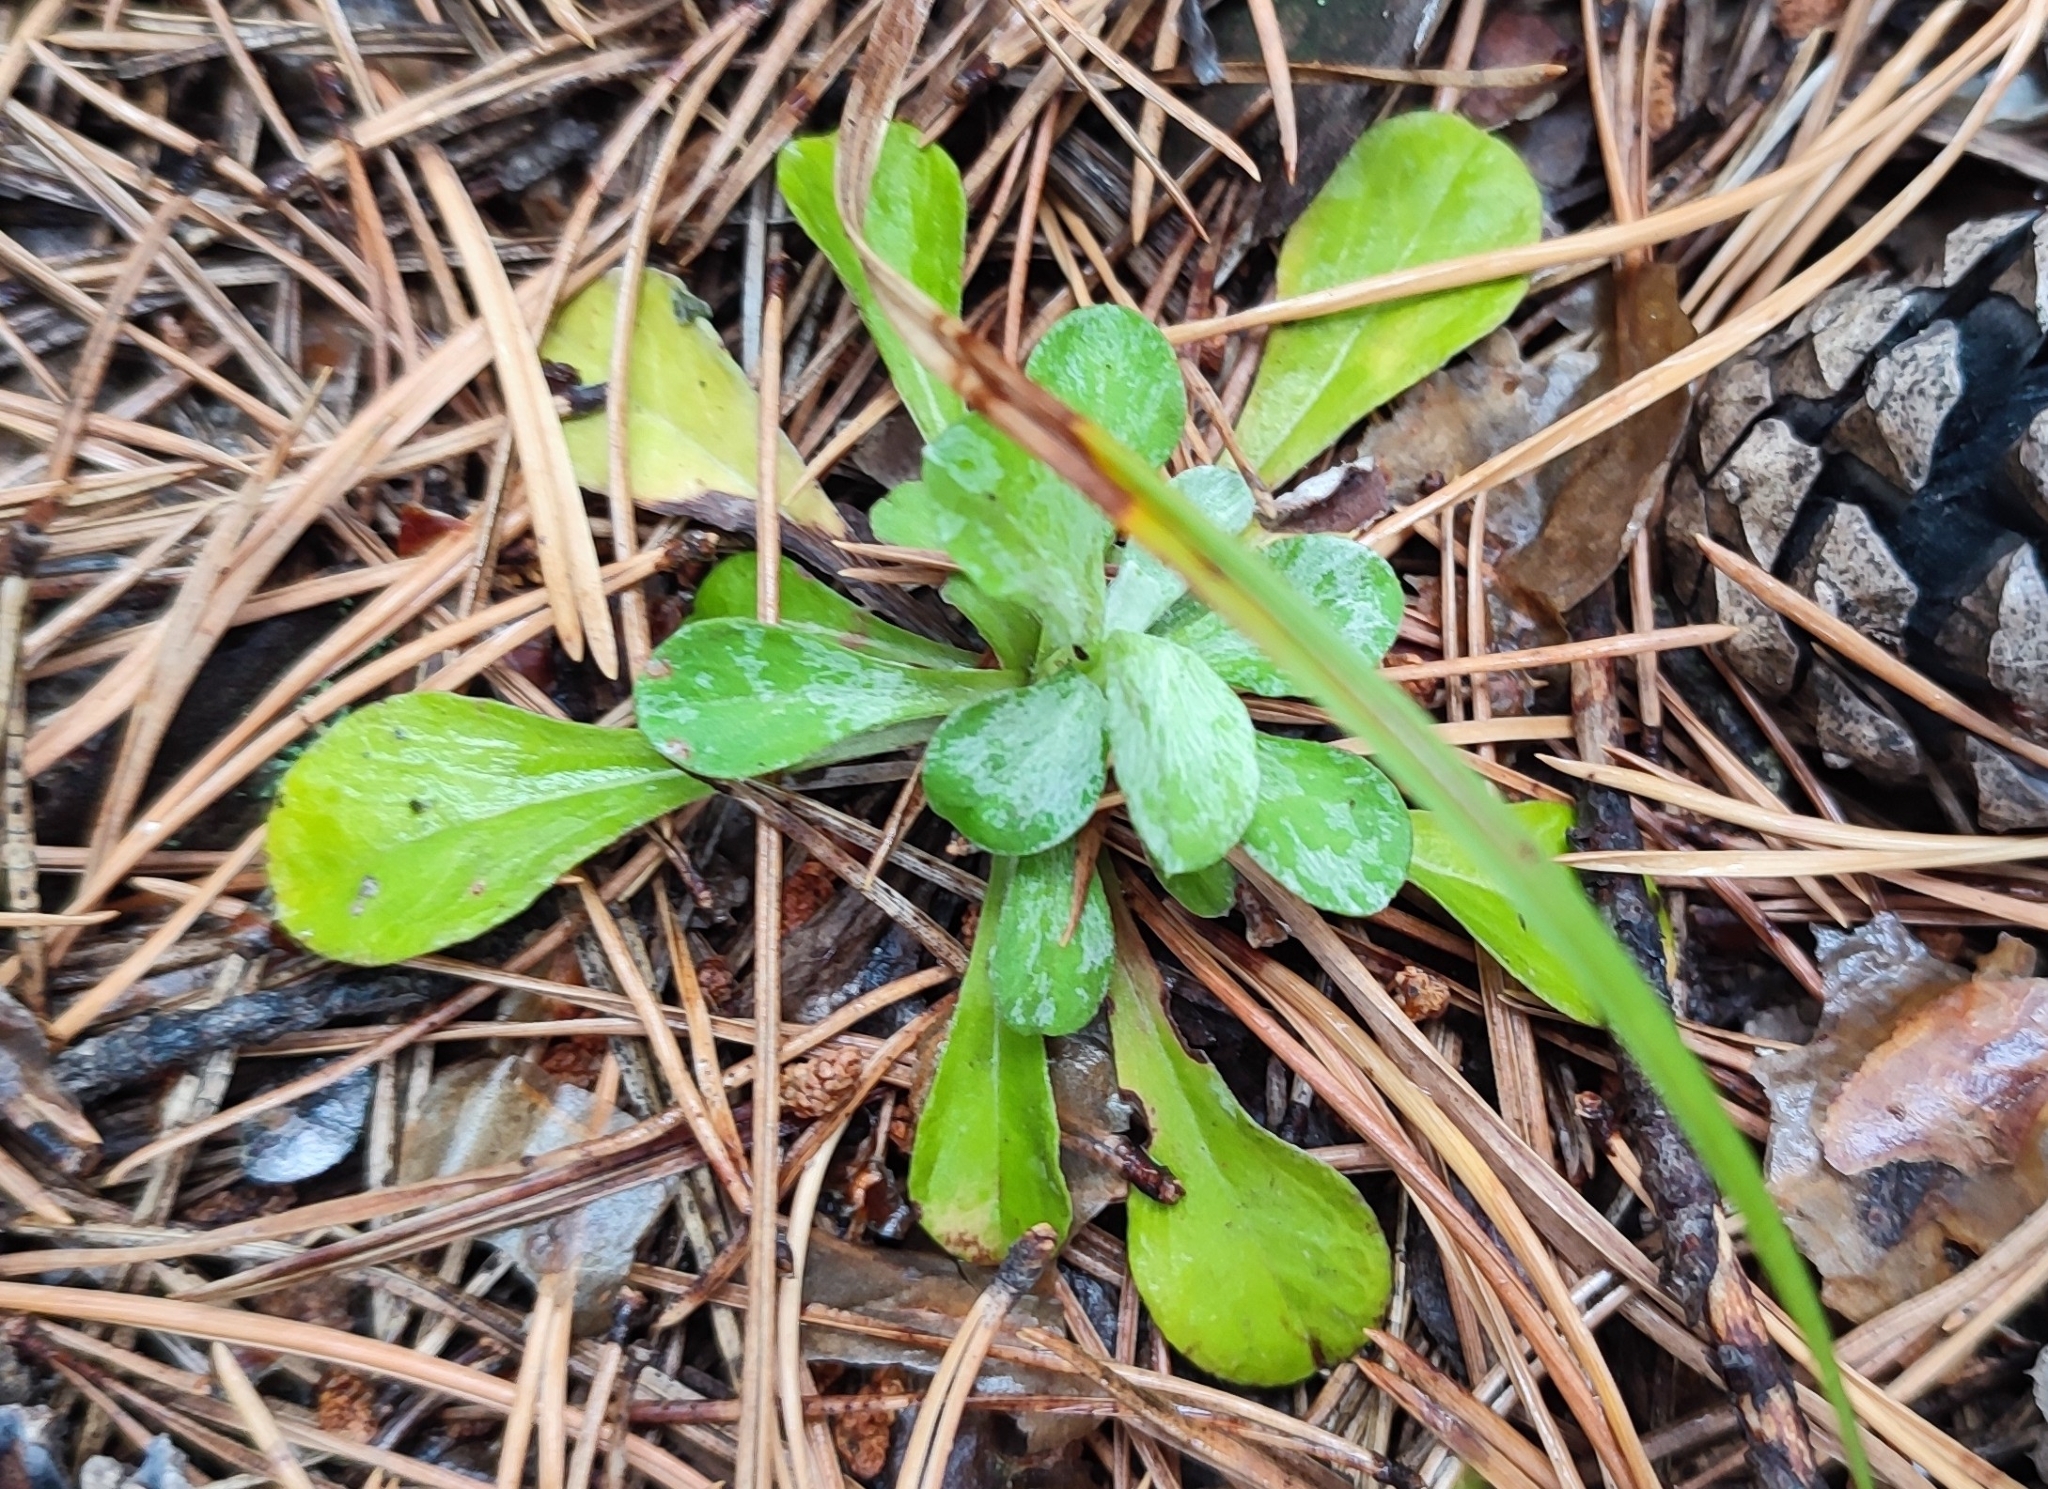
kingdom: Plantae
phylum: Tracheophyta
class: Magnoliopsida
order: Asterales
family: Asteraceae
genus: Antennaria
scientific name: Antennaria dioica
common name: Mountain everlasting
